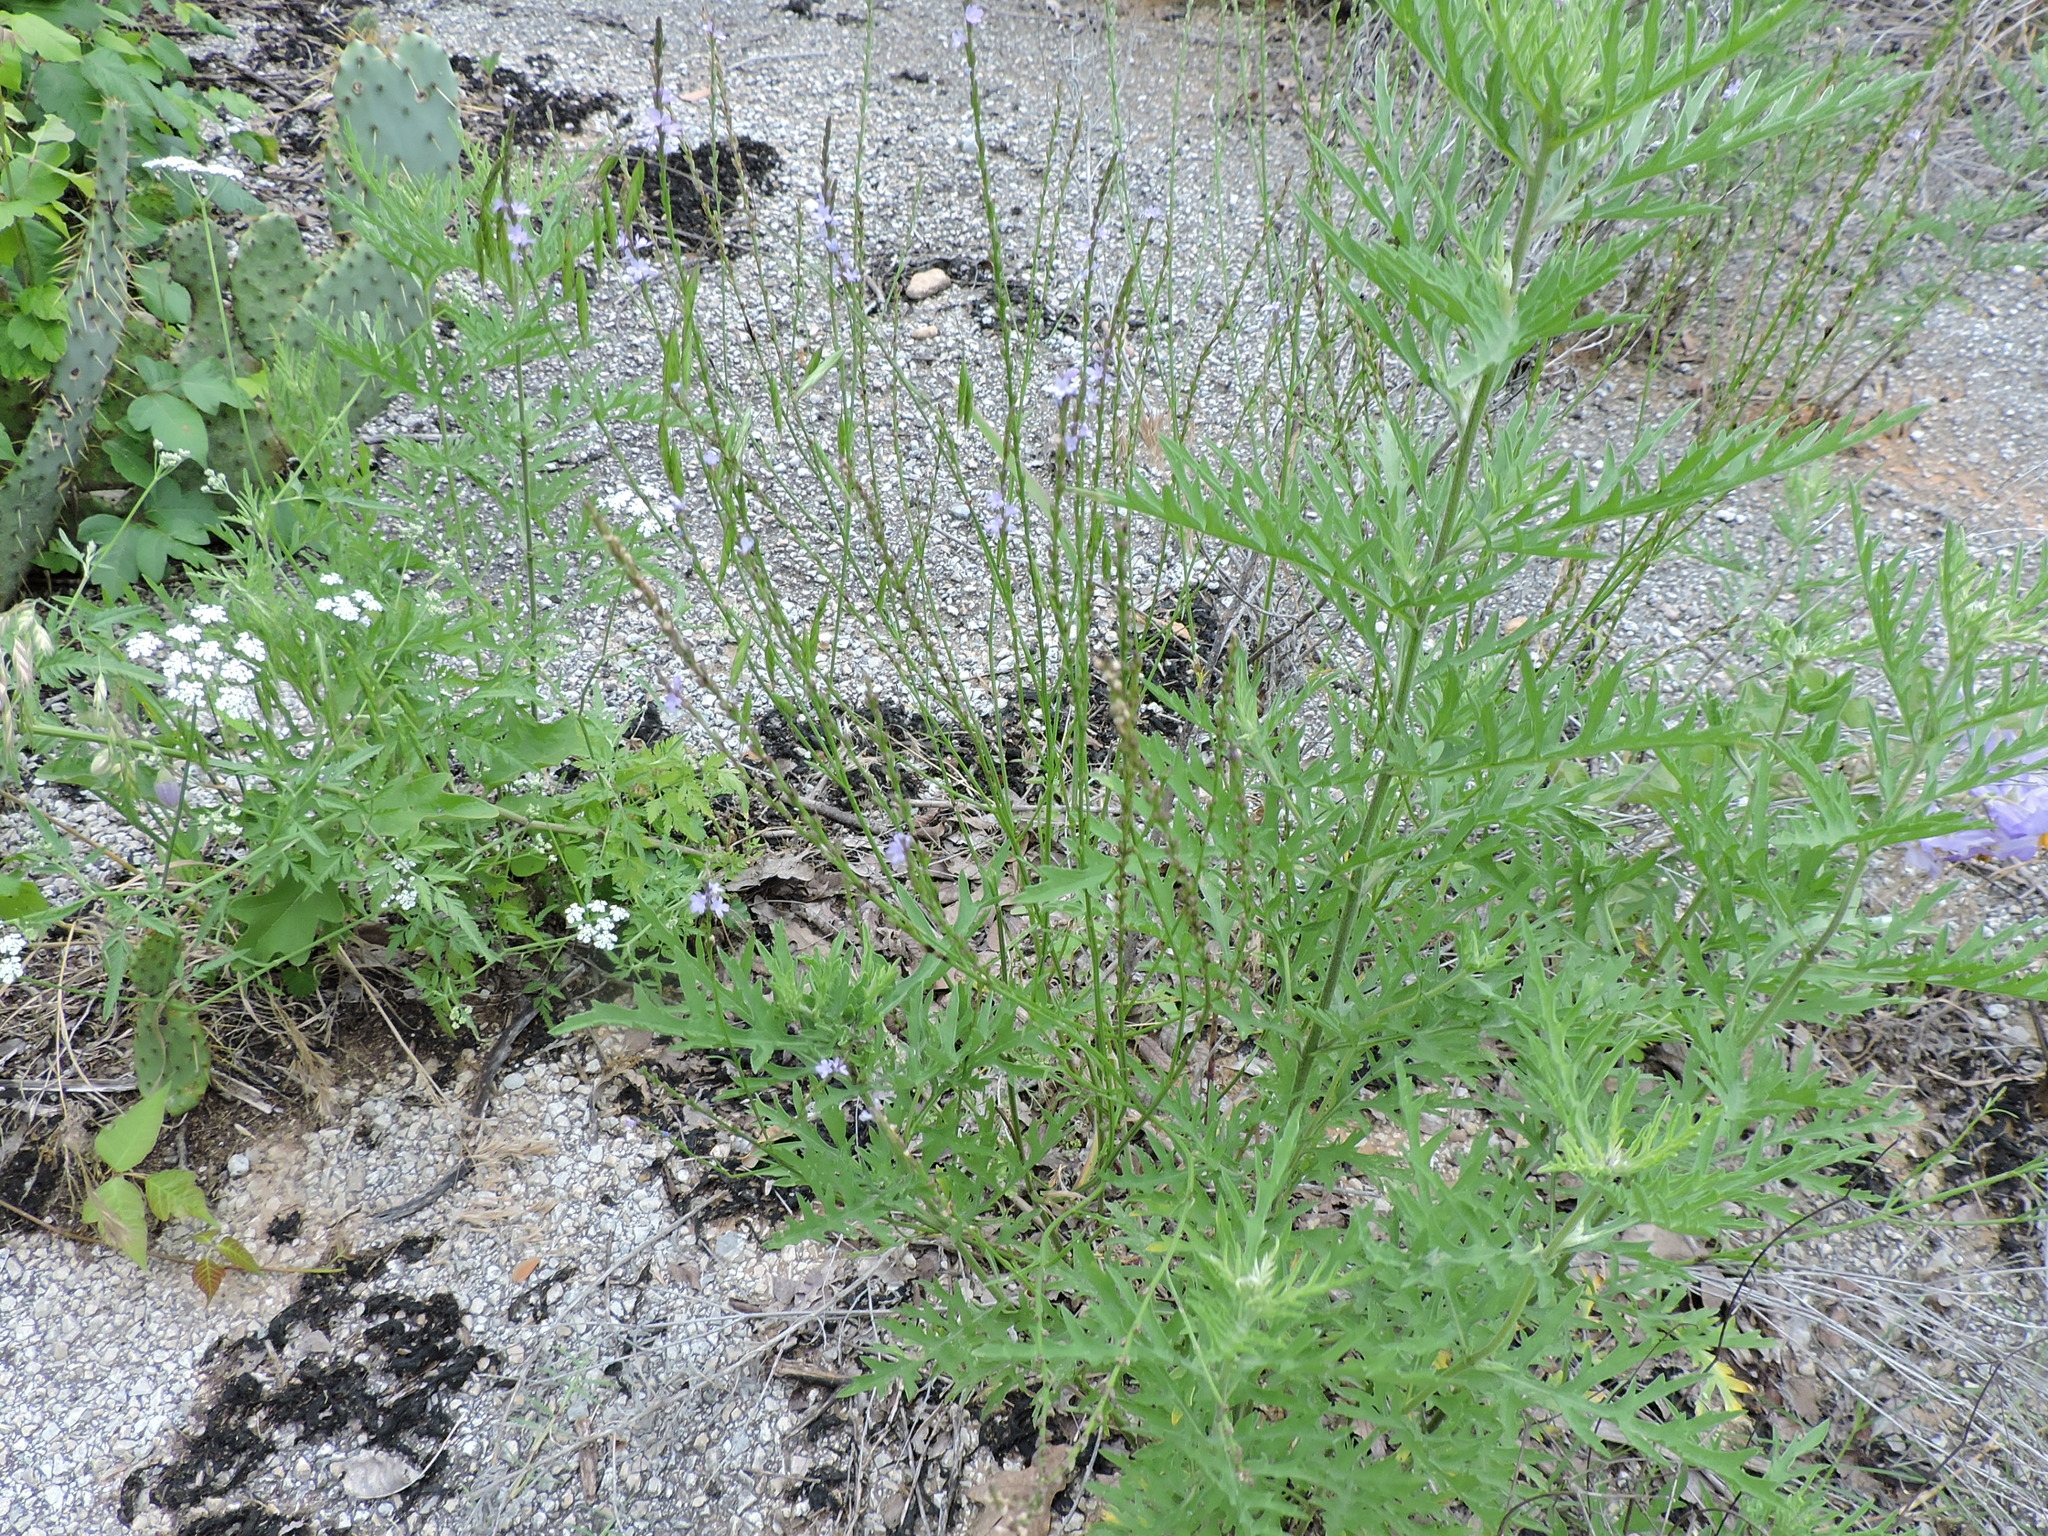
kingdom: Plantae
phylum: Tracheophyta
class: Magnoliopsida
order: Lamiales
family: Verbenaceae
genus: Verbena
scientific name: Verbena halei
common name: Texas vervain
